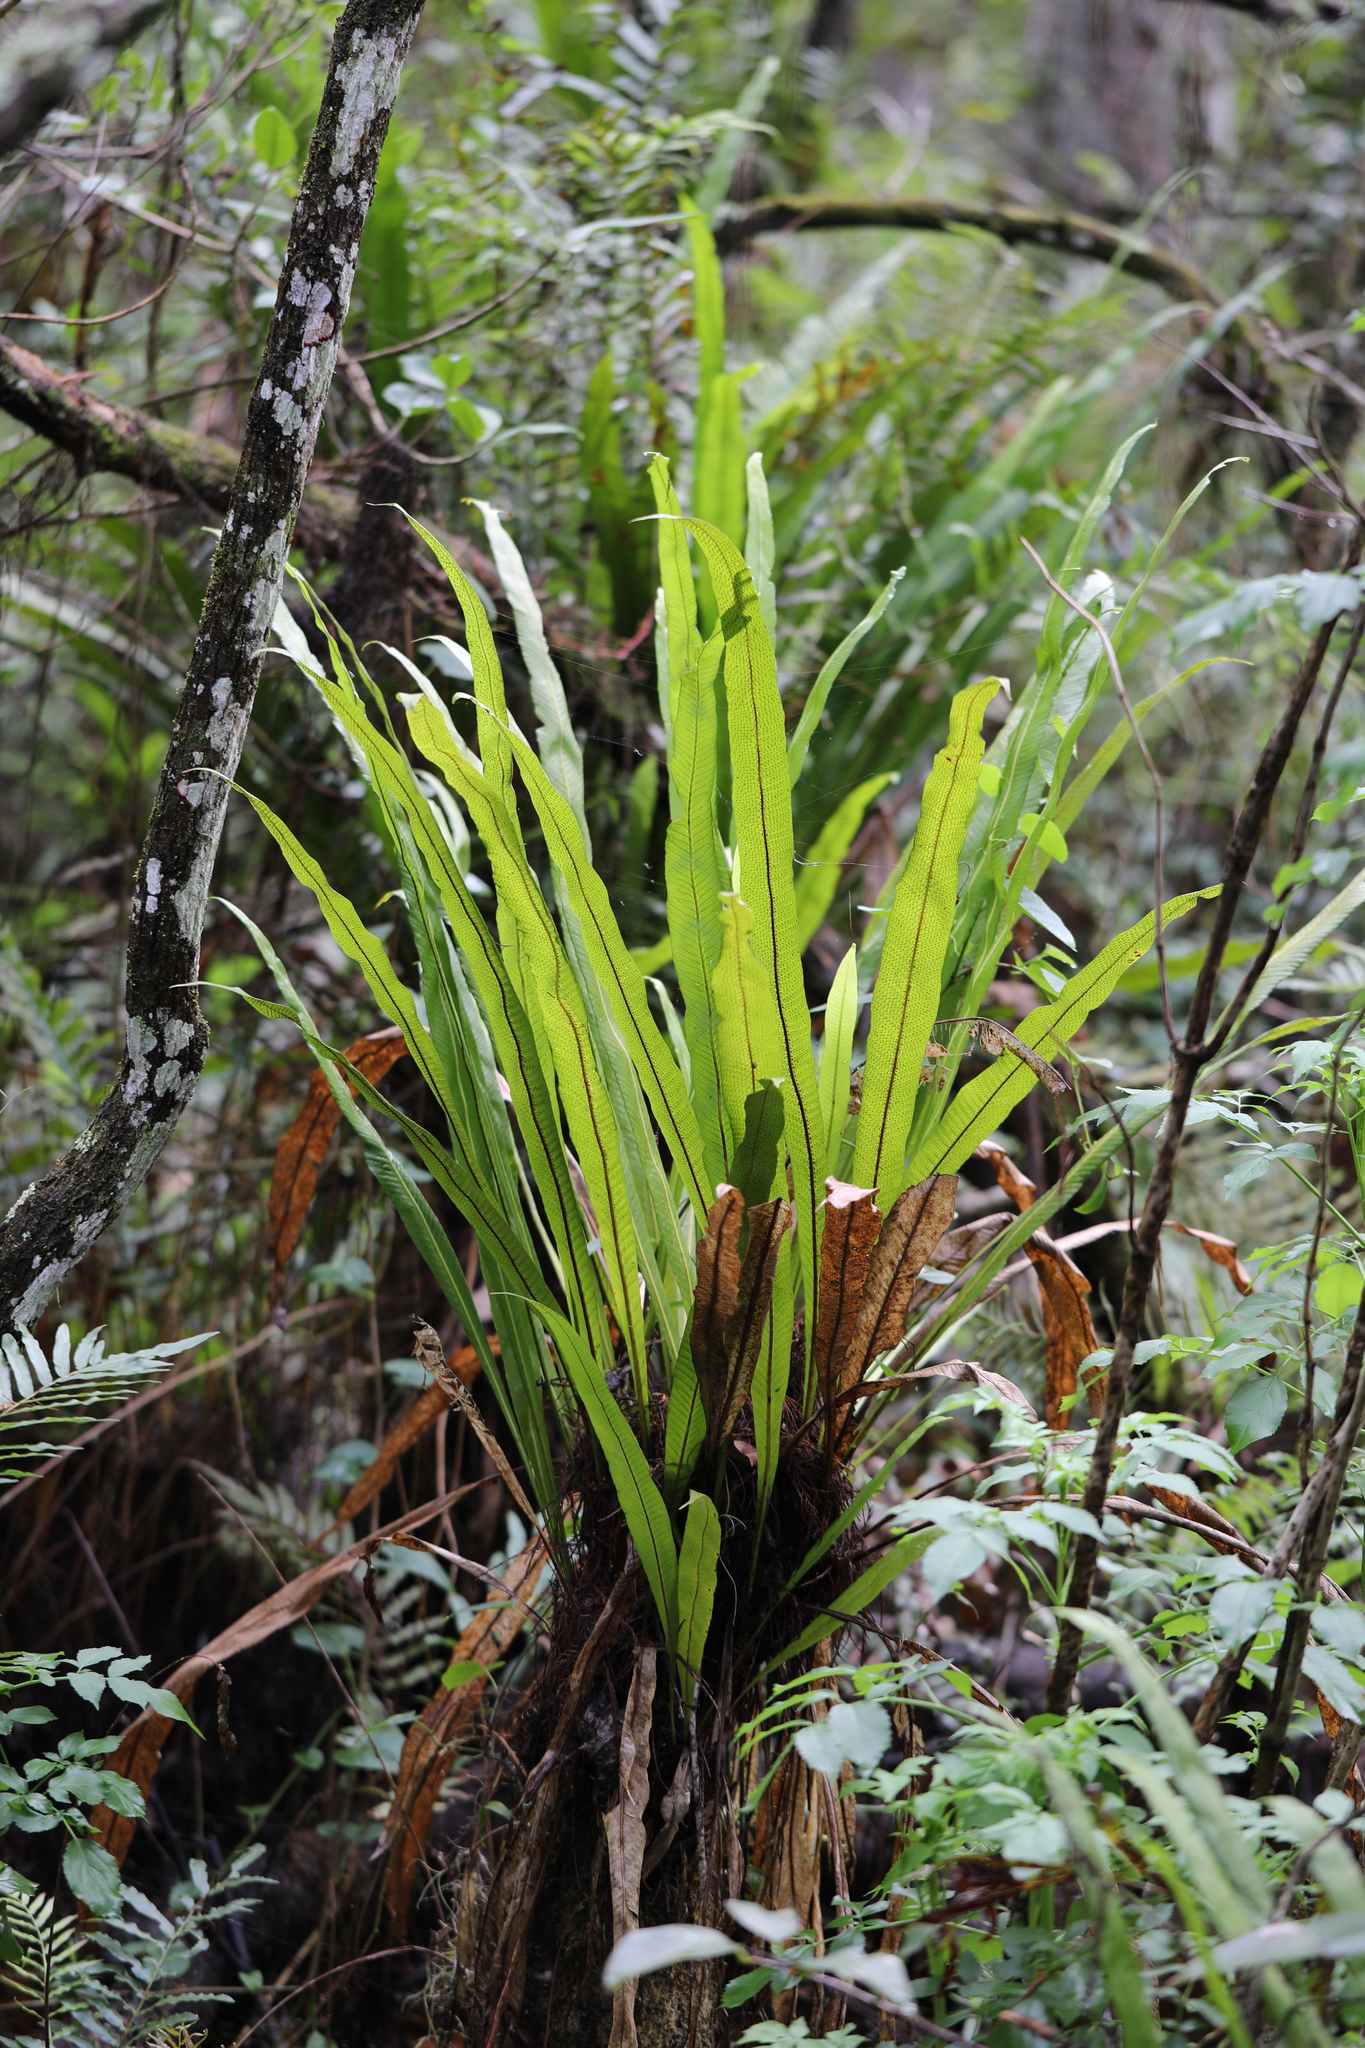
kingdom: Plantae
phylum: Tracheophyta
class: Polypodiopsida
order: Polypodiales
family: Polypodiaceae
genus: Campyloneurum
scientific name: Campyloneurum phyllitidis
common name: Cow-tongue fern
